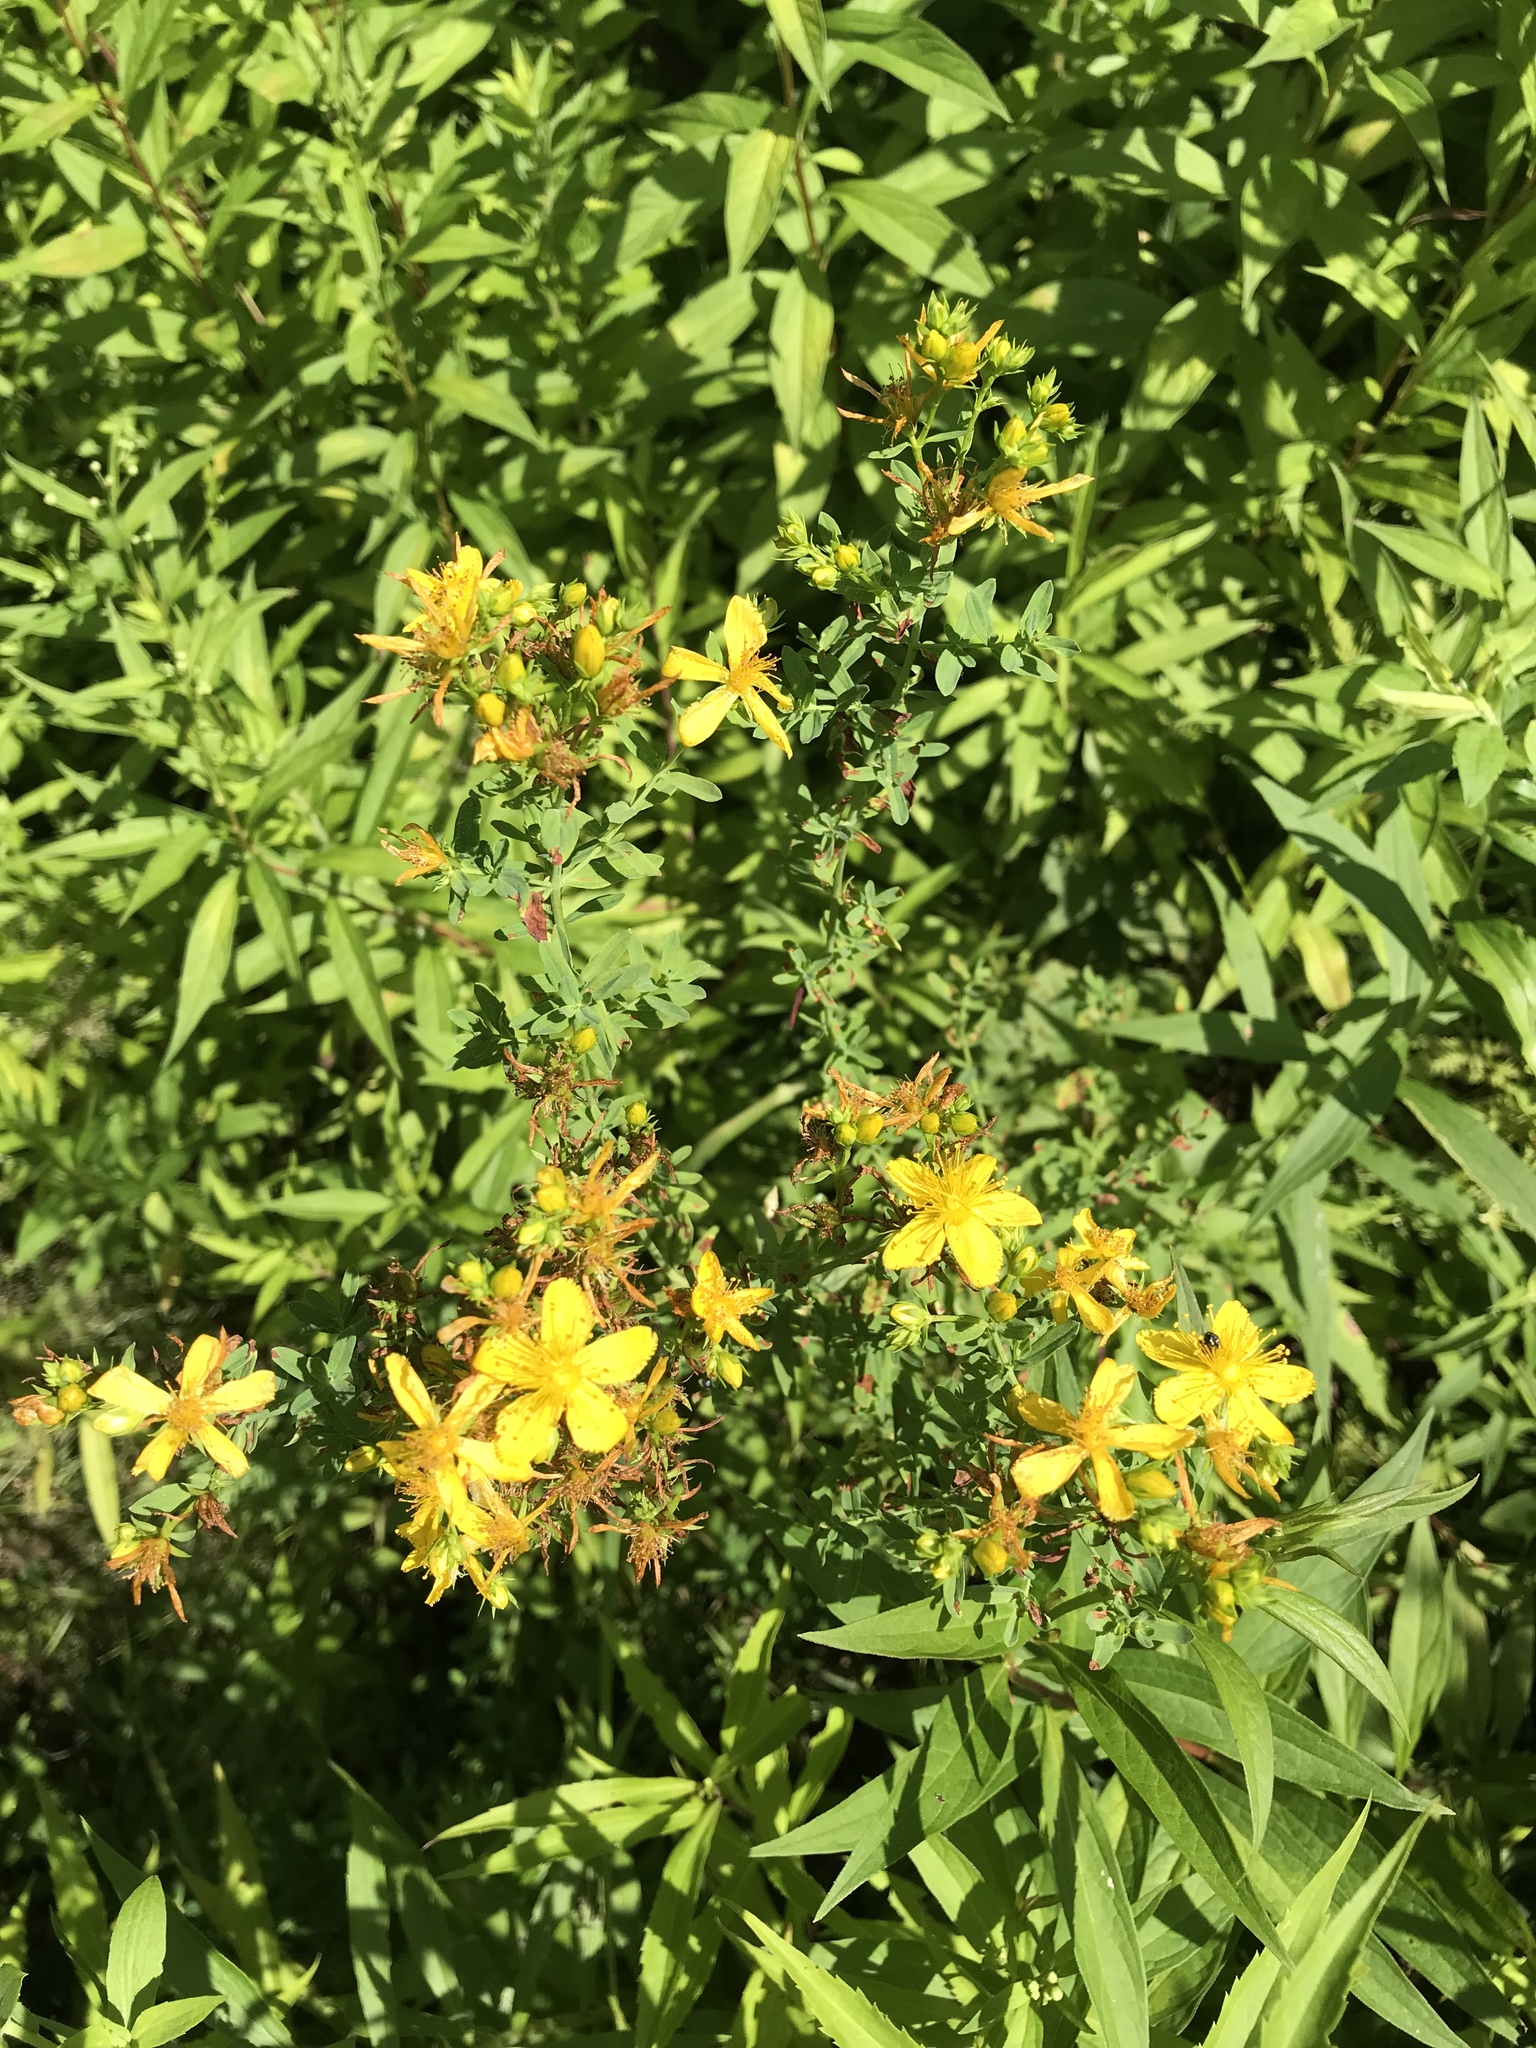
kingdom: Plantae
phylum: Tracheophyta
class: Magnoliopsida
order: Malpighiales
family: Hypericaceae
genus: Hypericum
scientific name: Hypericum perforatum
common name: Common st. johnswort
